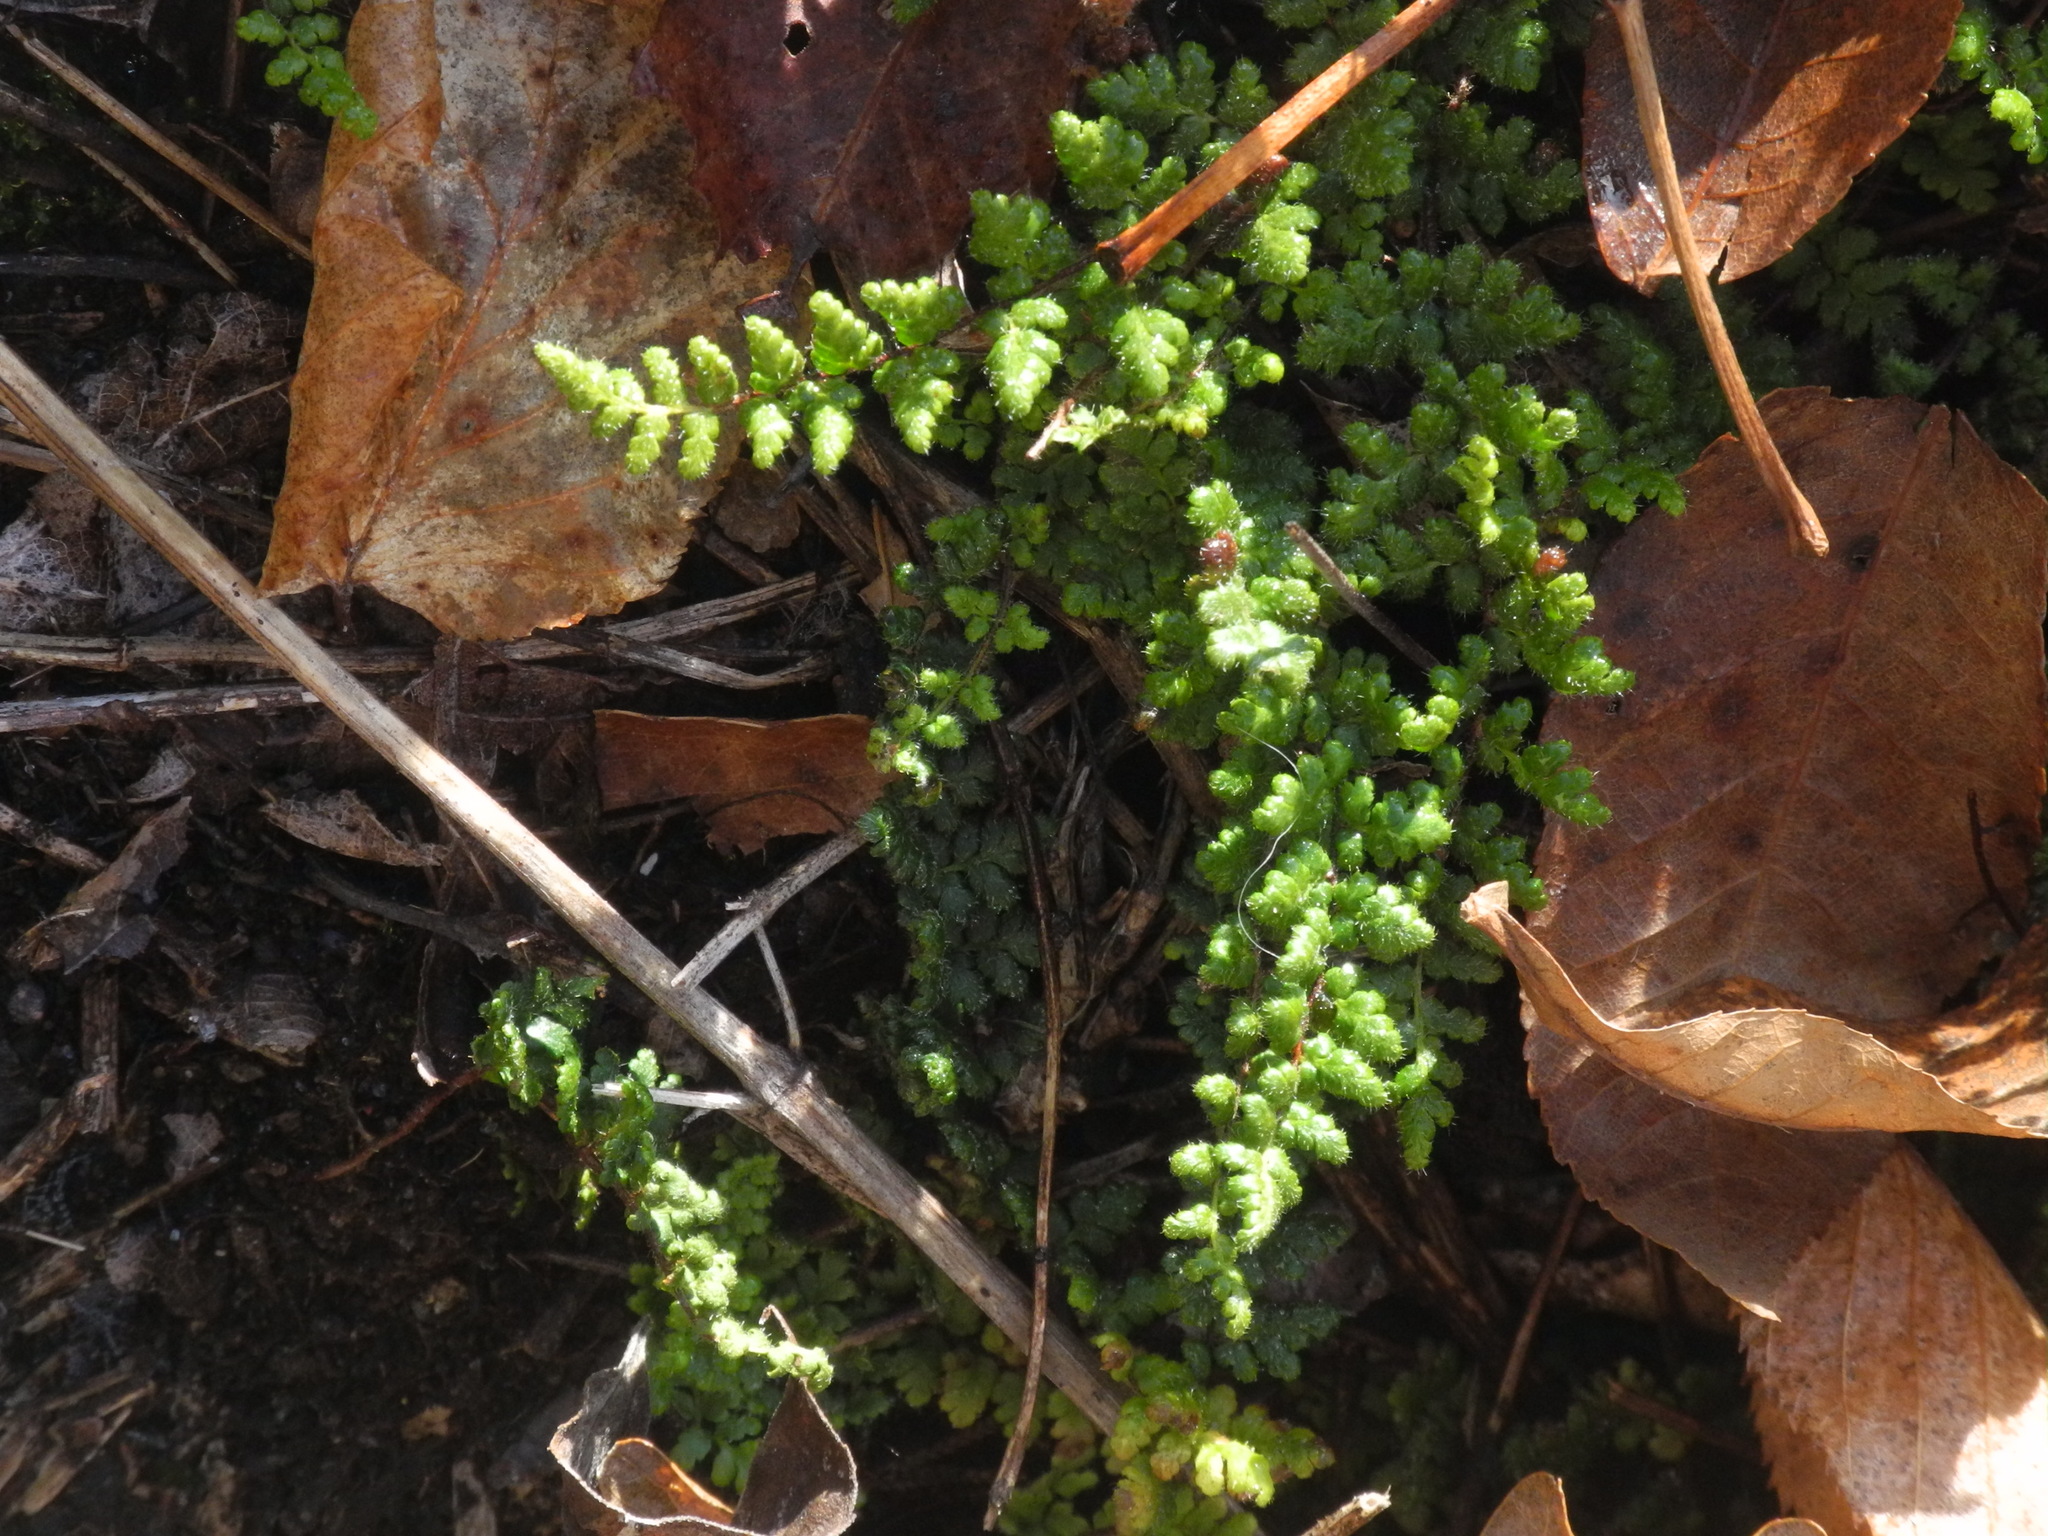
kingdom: Plantae
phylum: Tracheophyta
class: Polypodiopsida
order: Polypodiales
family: Pteridaceae
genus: Myriopteris
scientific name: Myriopteris lanosa
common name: Hairy lip fern
